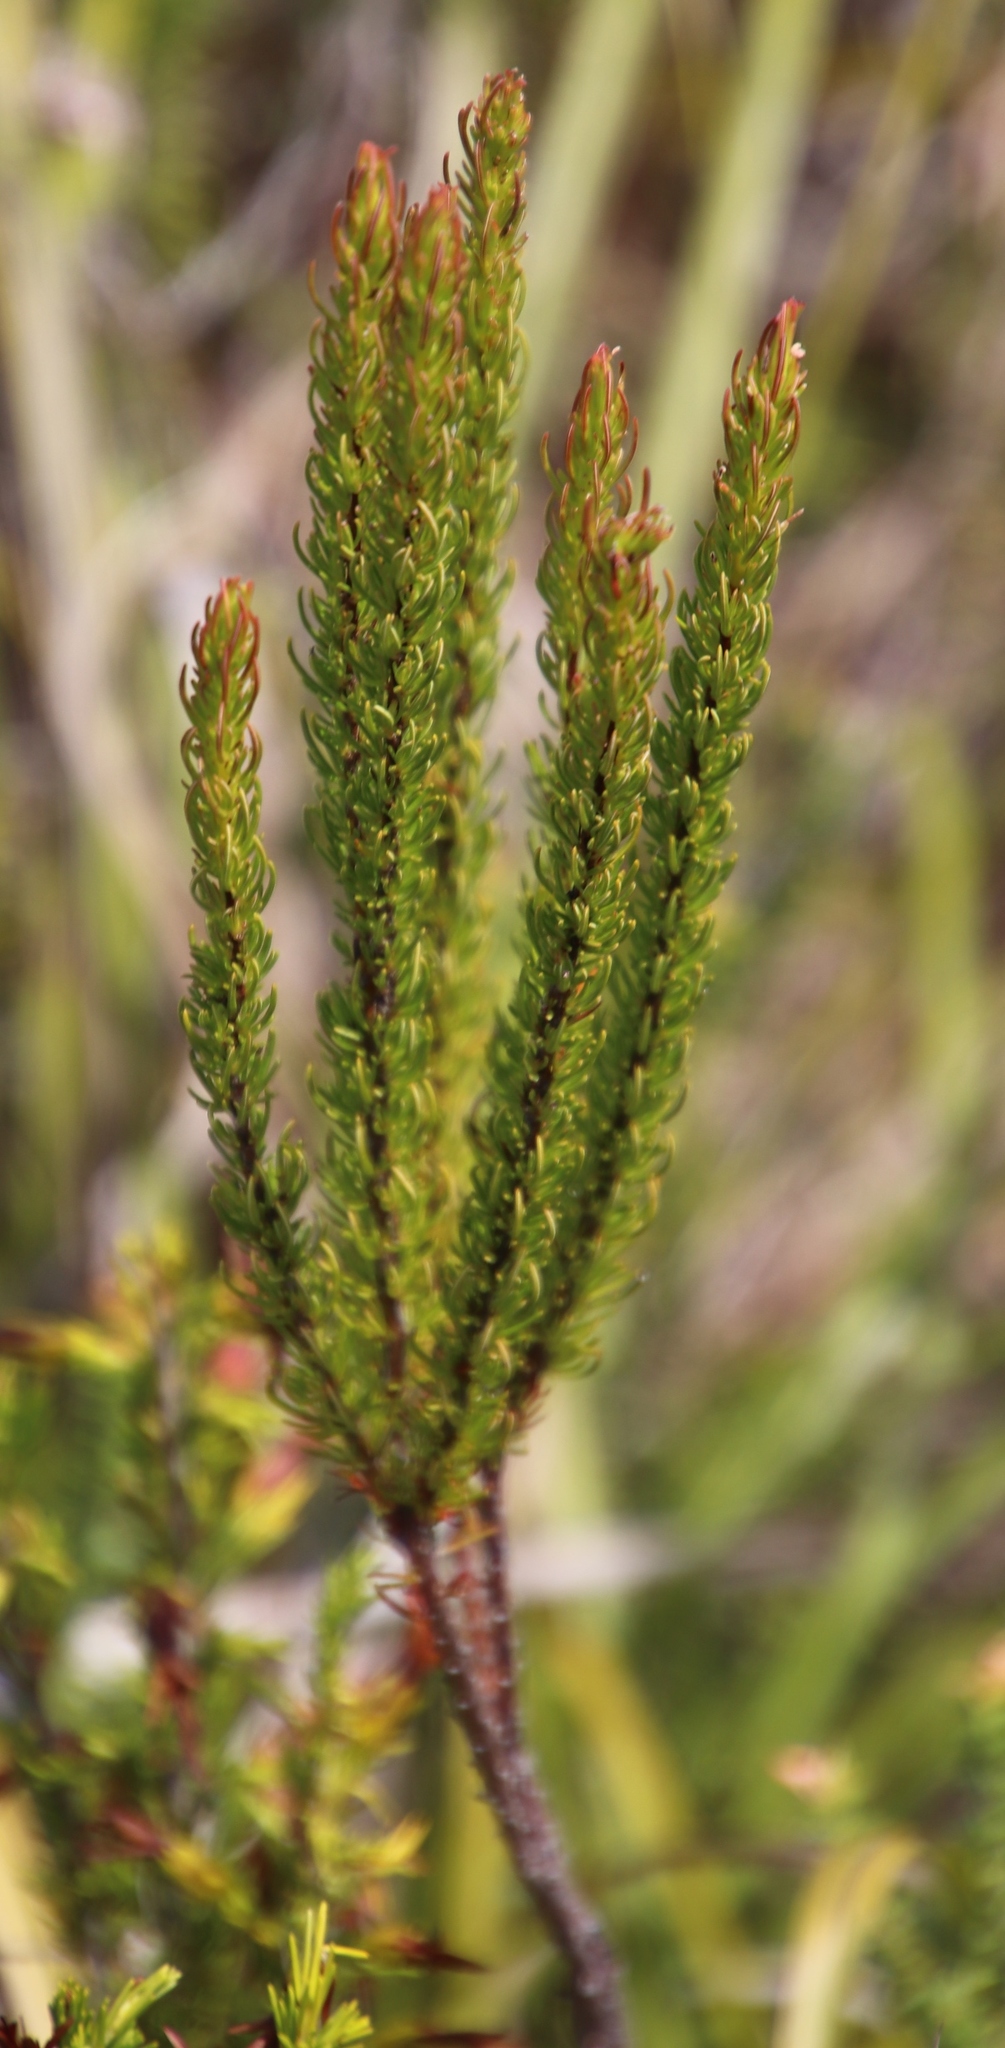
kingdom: Plantae
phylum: Tracheophyta
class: Magnoliopsida
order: Ericales
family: Ericaceae
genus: Erica
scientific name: Erica plukenetii
